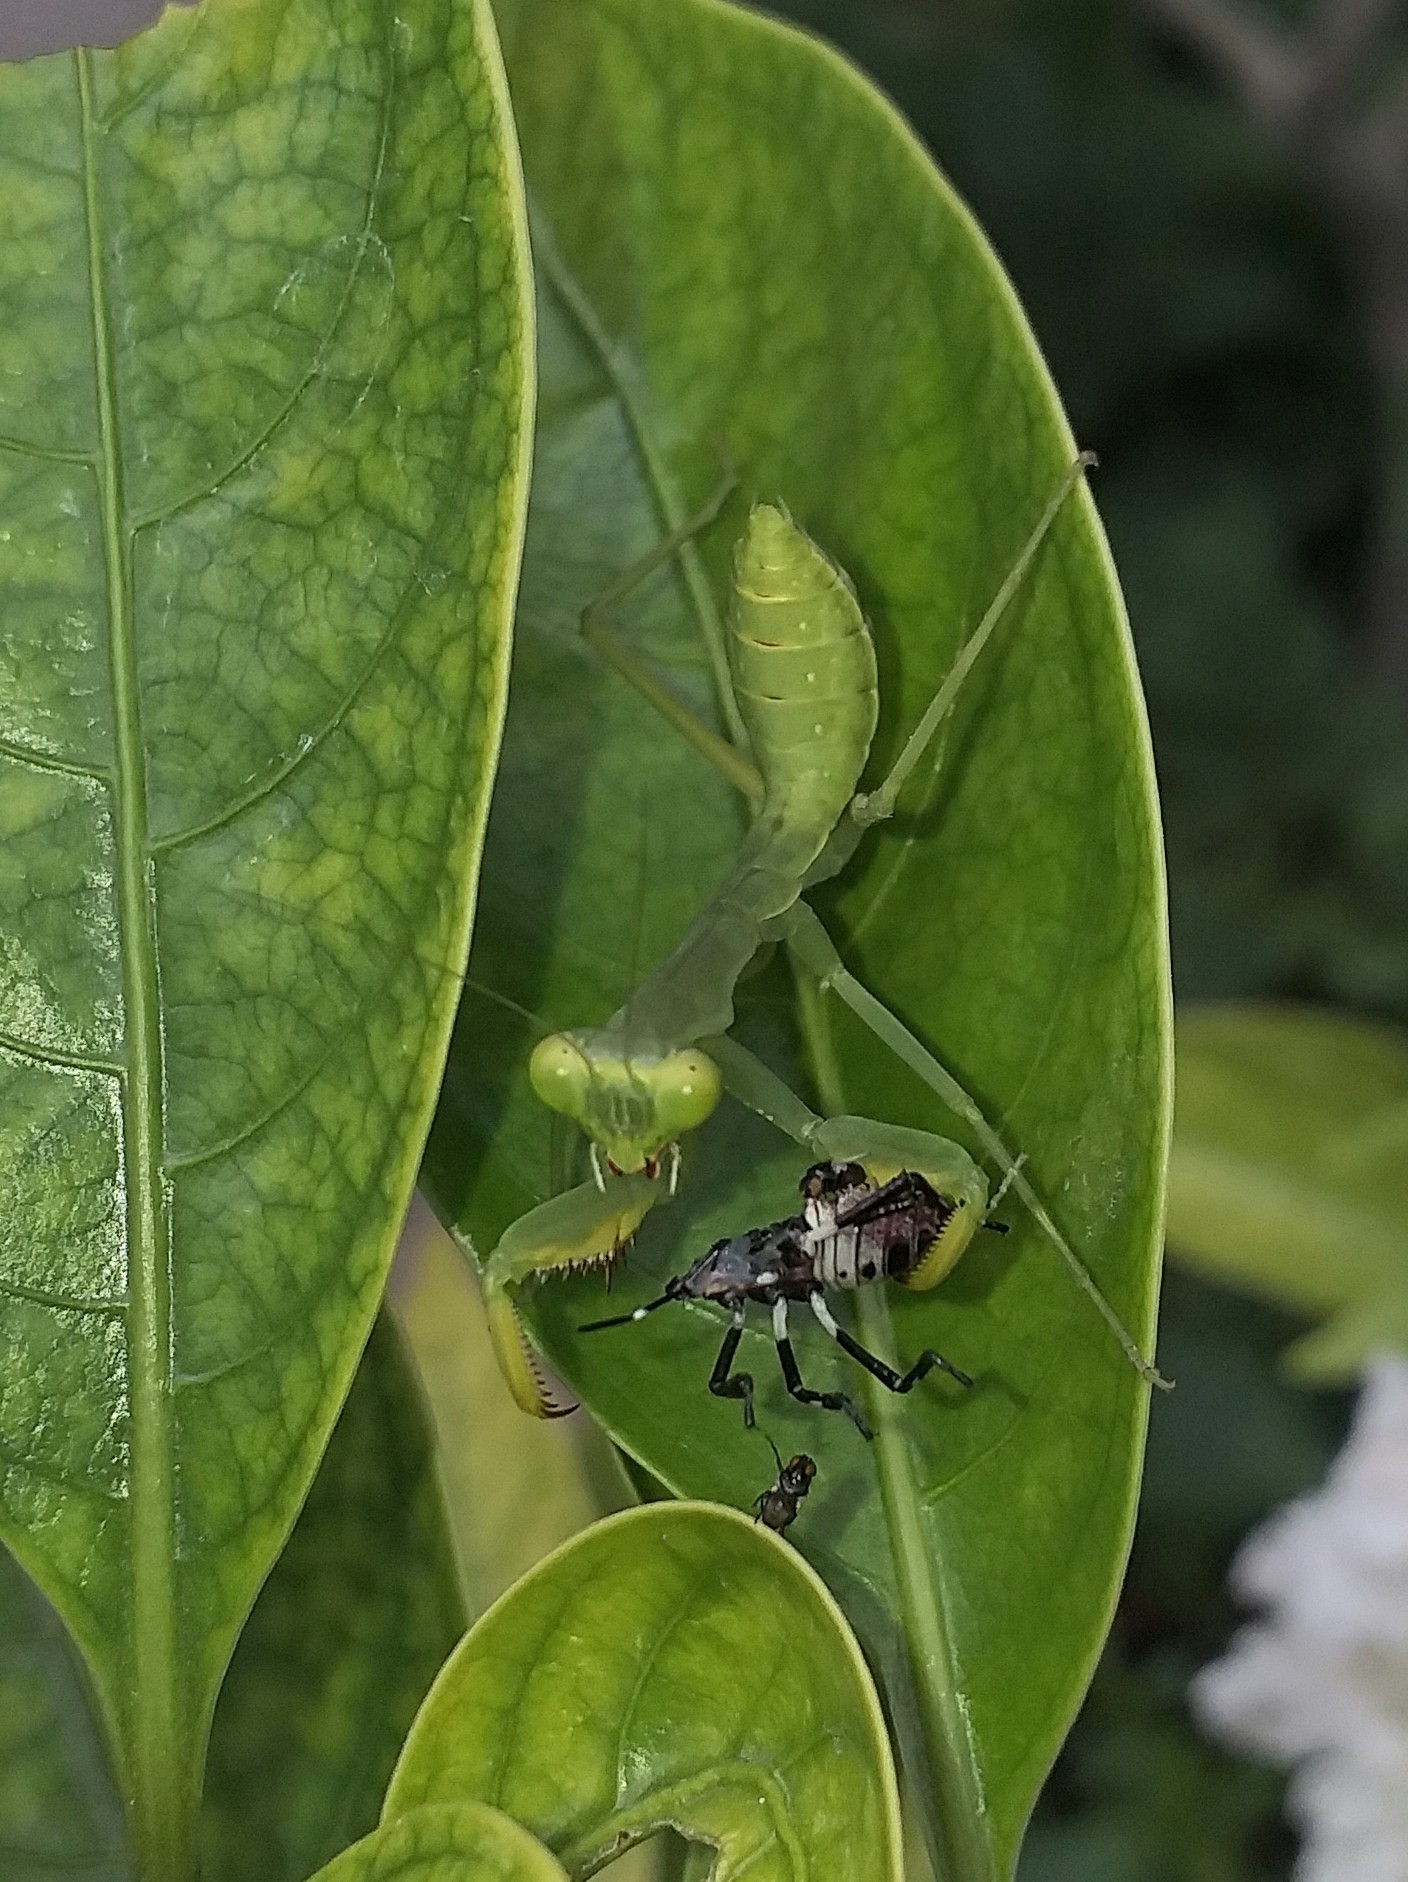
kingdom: Animalia
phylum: Arthropoda
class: Insecta
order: Mantodea
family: Mantidae
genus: Hierodula
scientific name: Hierodula tenuidentata
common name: Giant asian mantis
